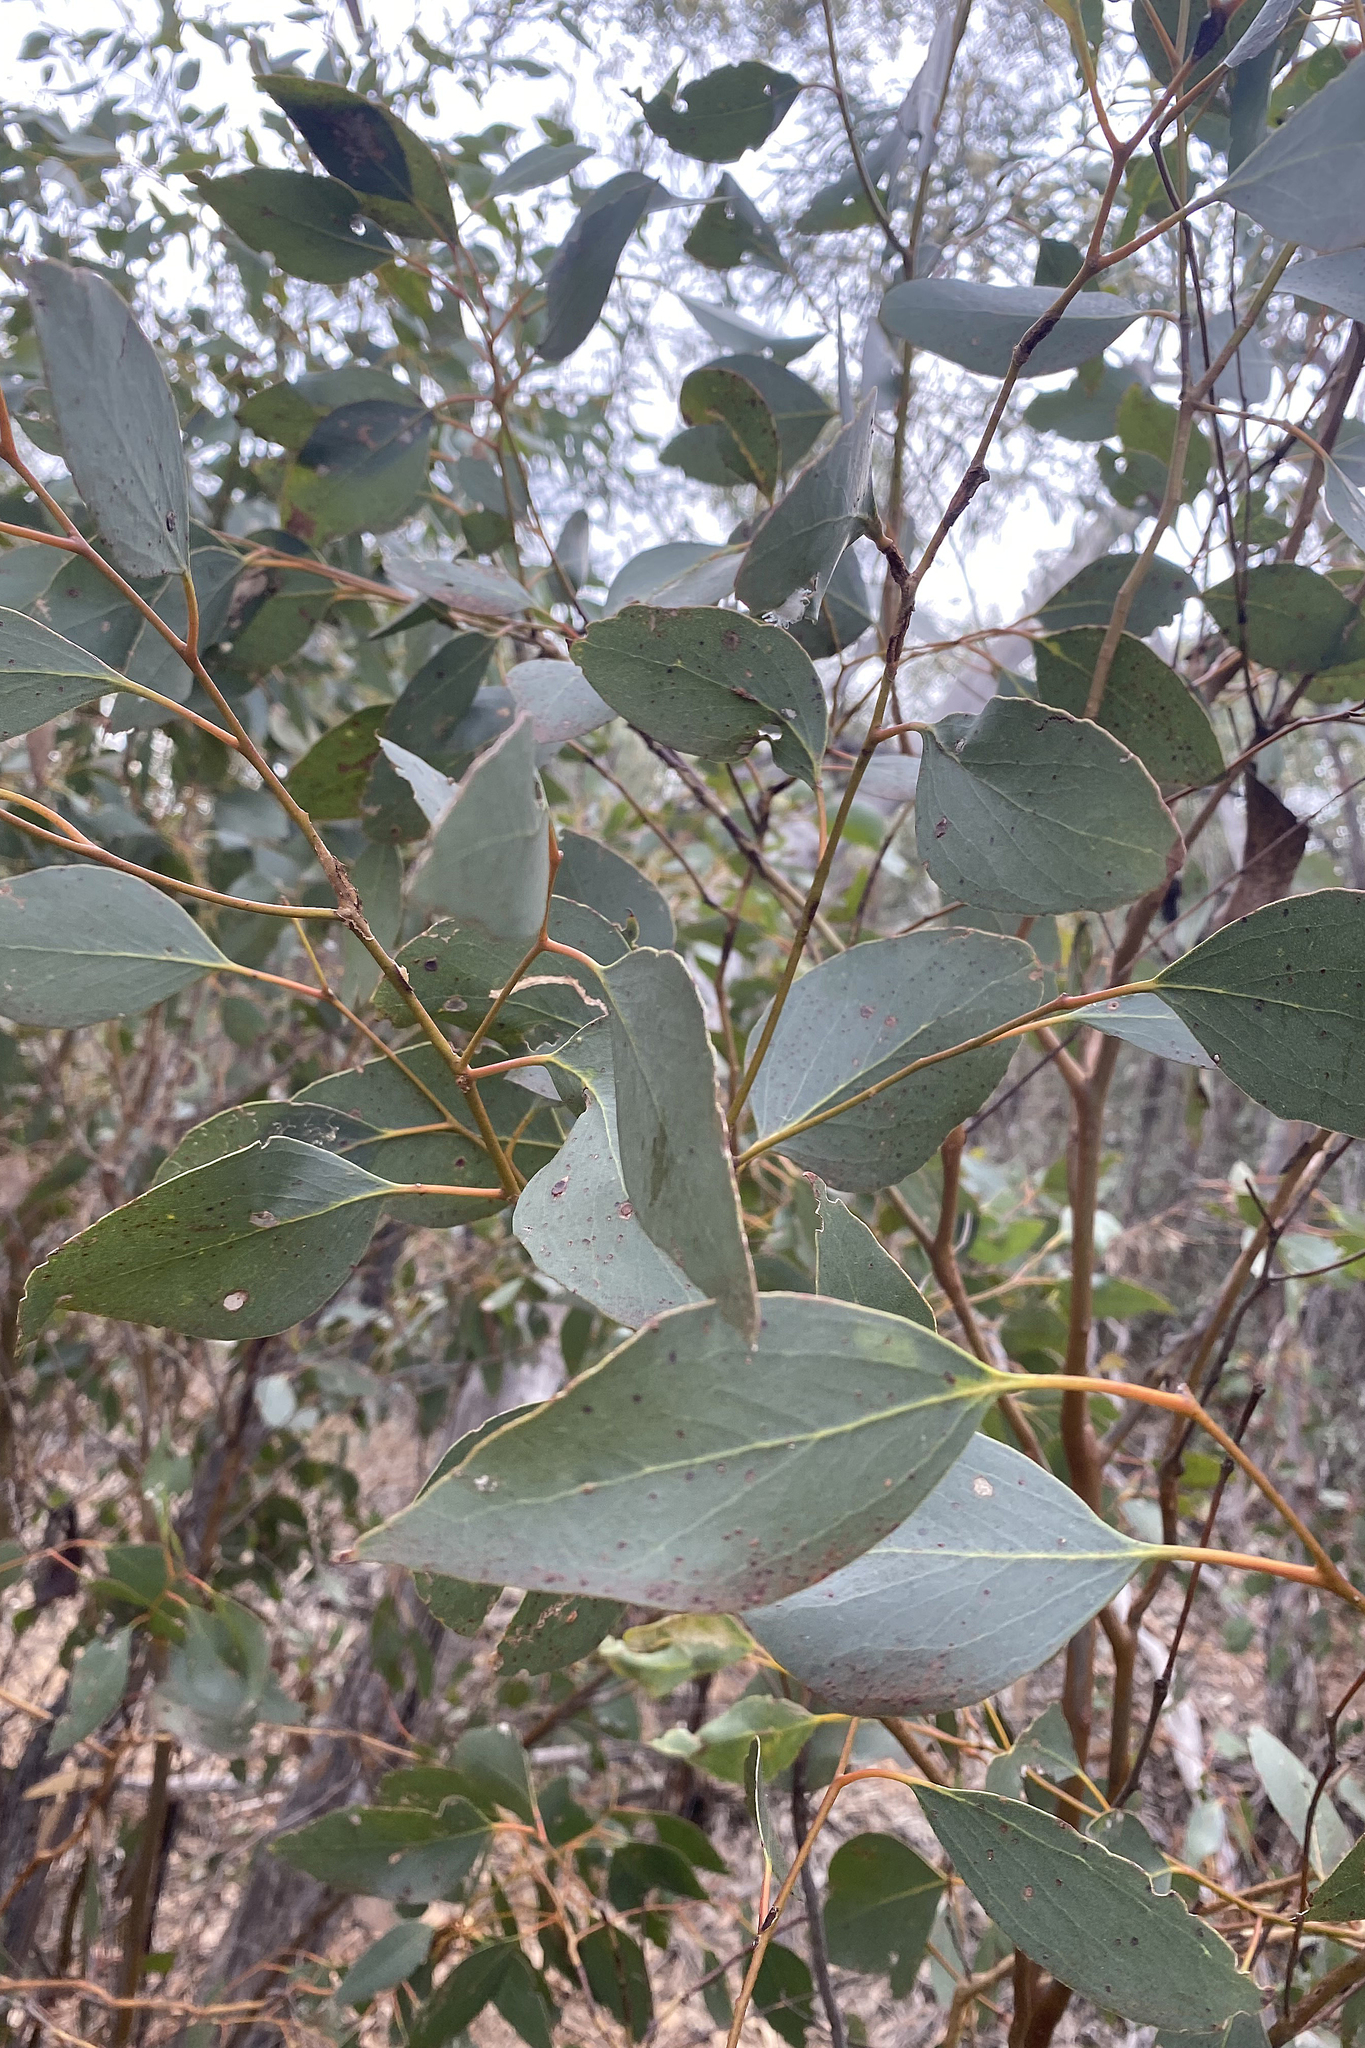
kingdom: Plantae
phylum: Tracheophyta
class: Magnoliopsida
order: Myrtales
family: Myrtaceae
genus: Eucalyptus
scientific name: Eucalyptus behriana
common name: Bull mallee
